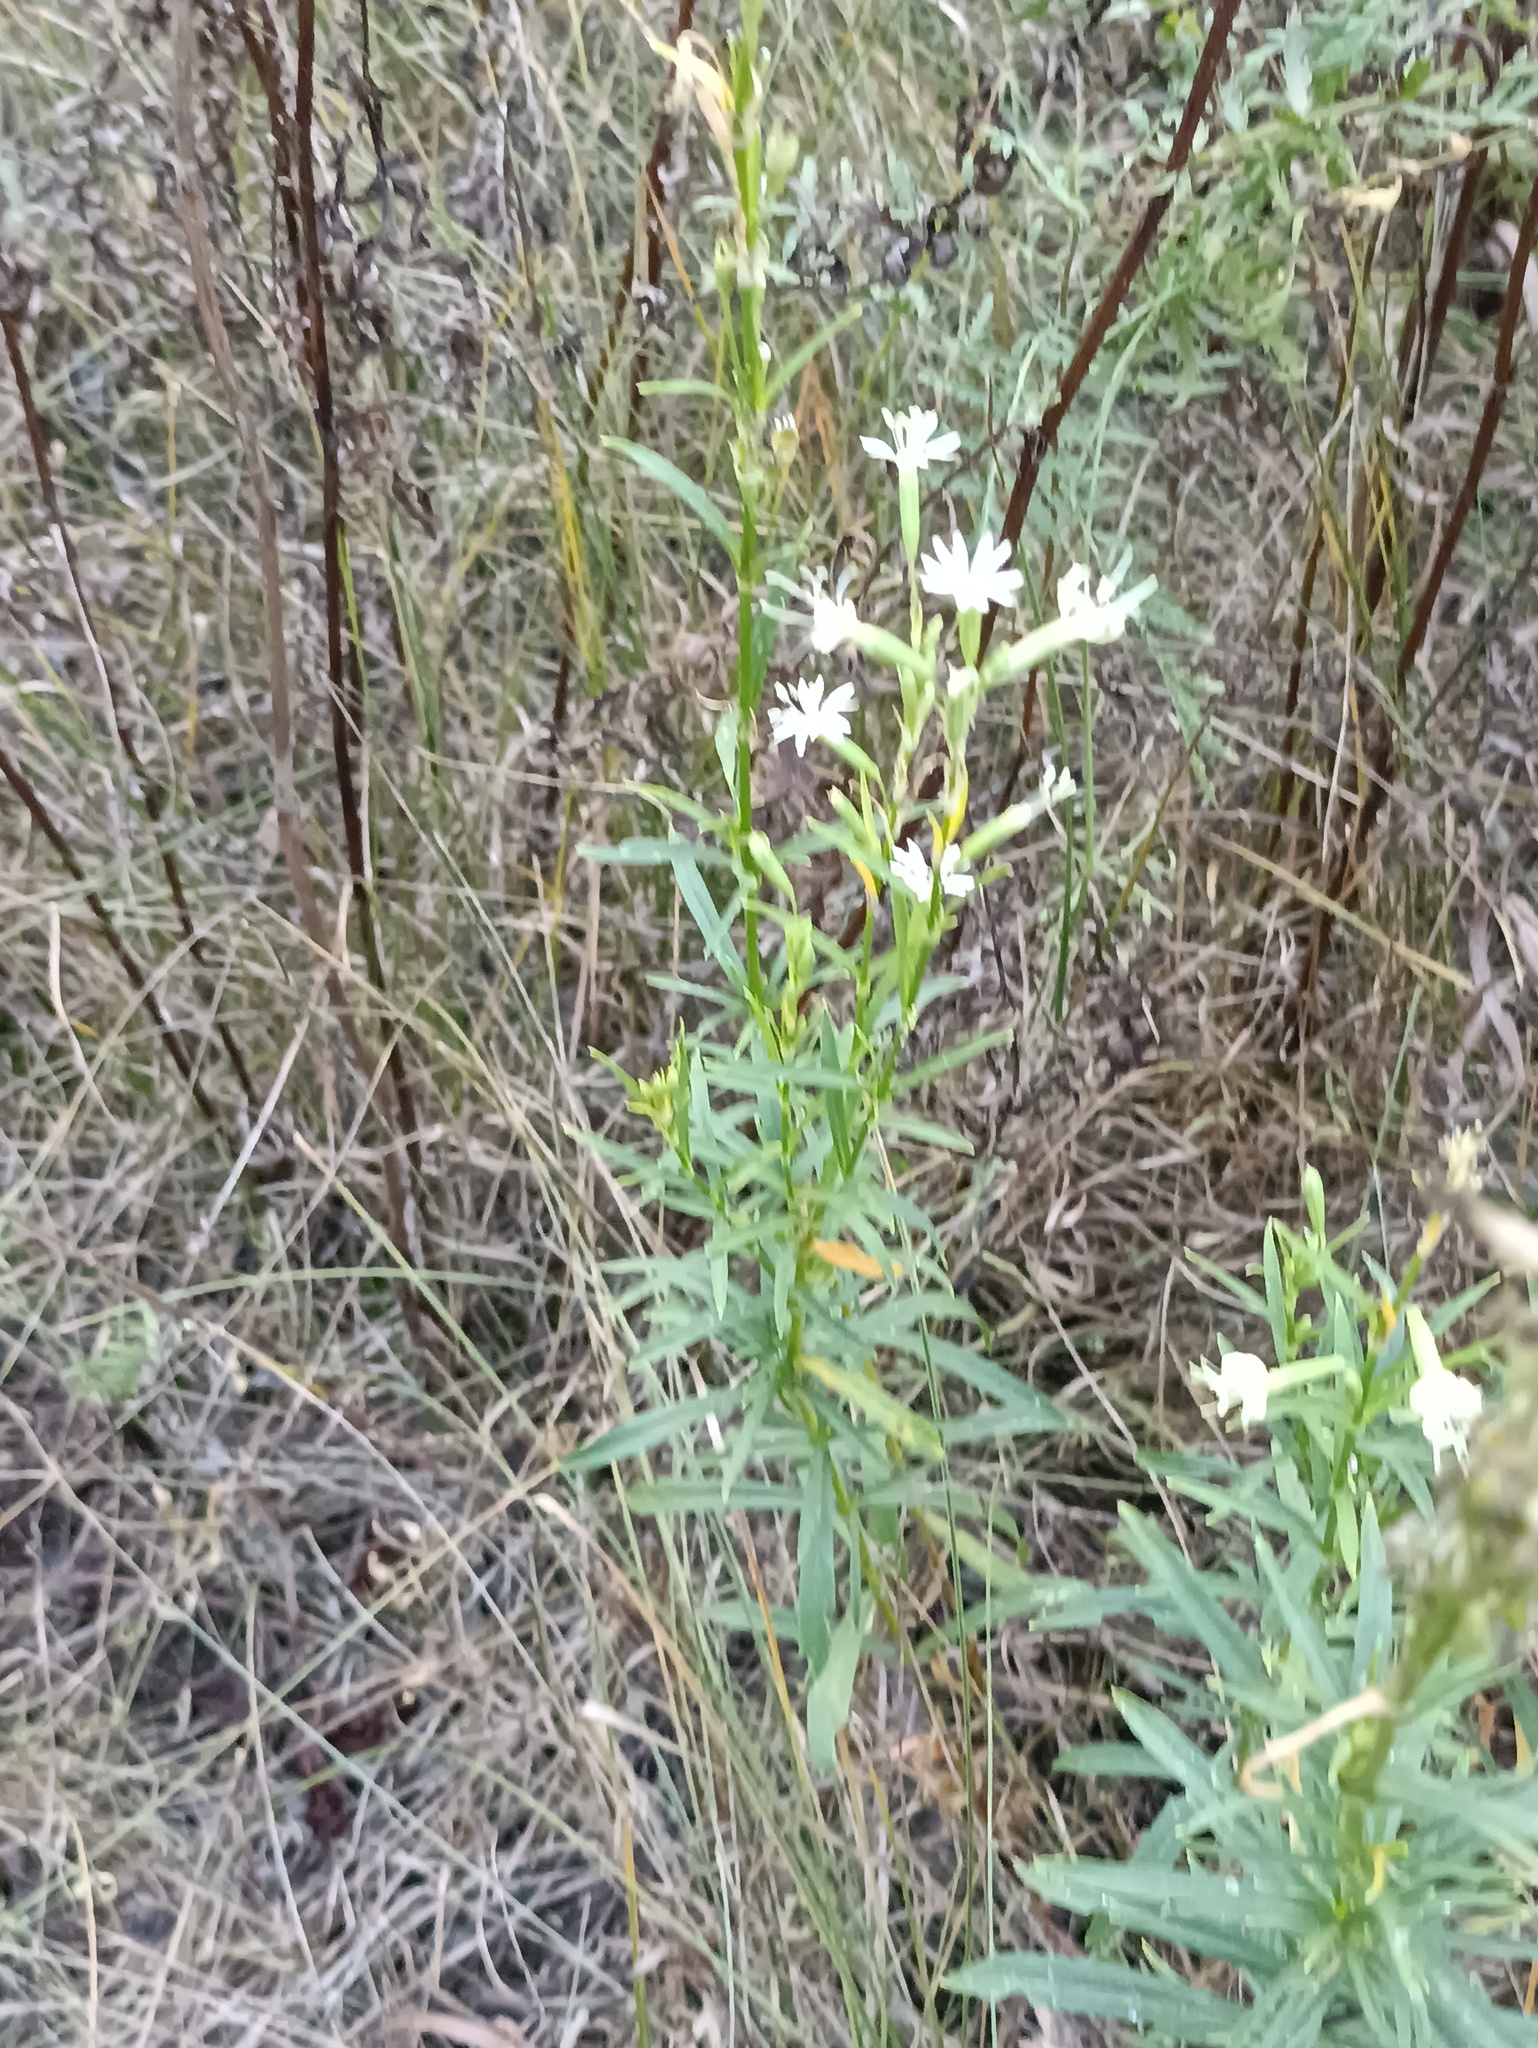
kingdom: Plantae
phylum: Tracheophyta
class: Magnoliopsida
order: Caryophyllales
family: Caryophyllaceae
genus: Silene
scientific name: Silene tatarica
